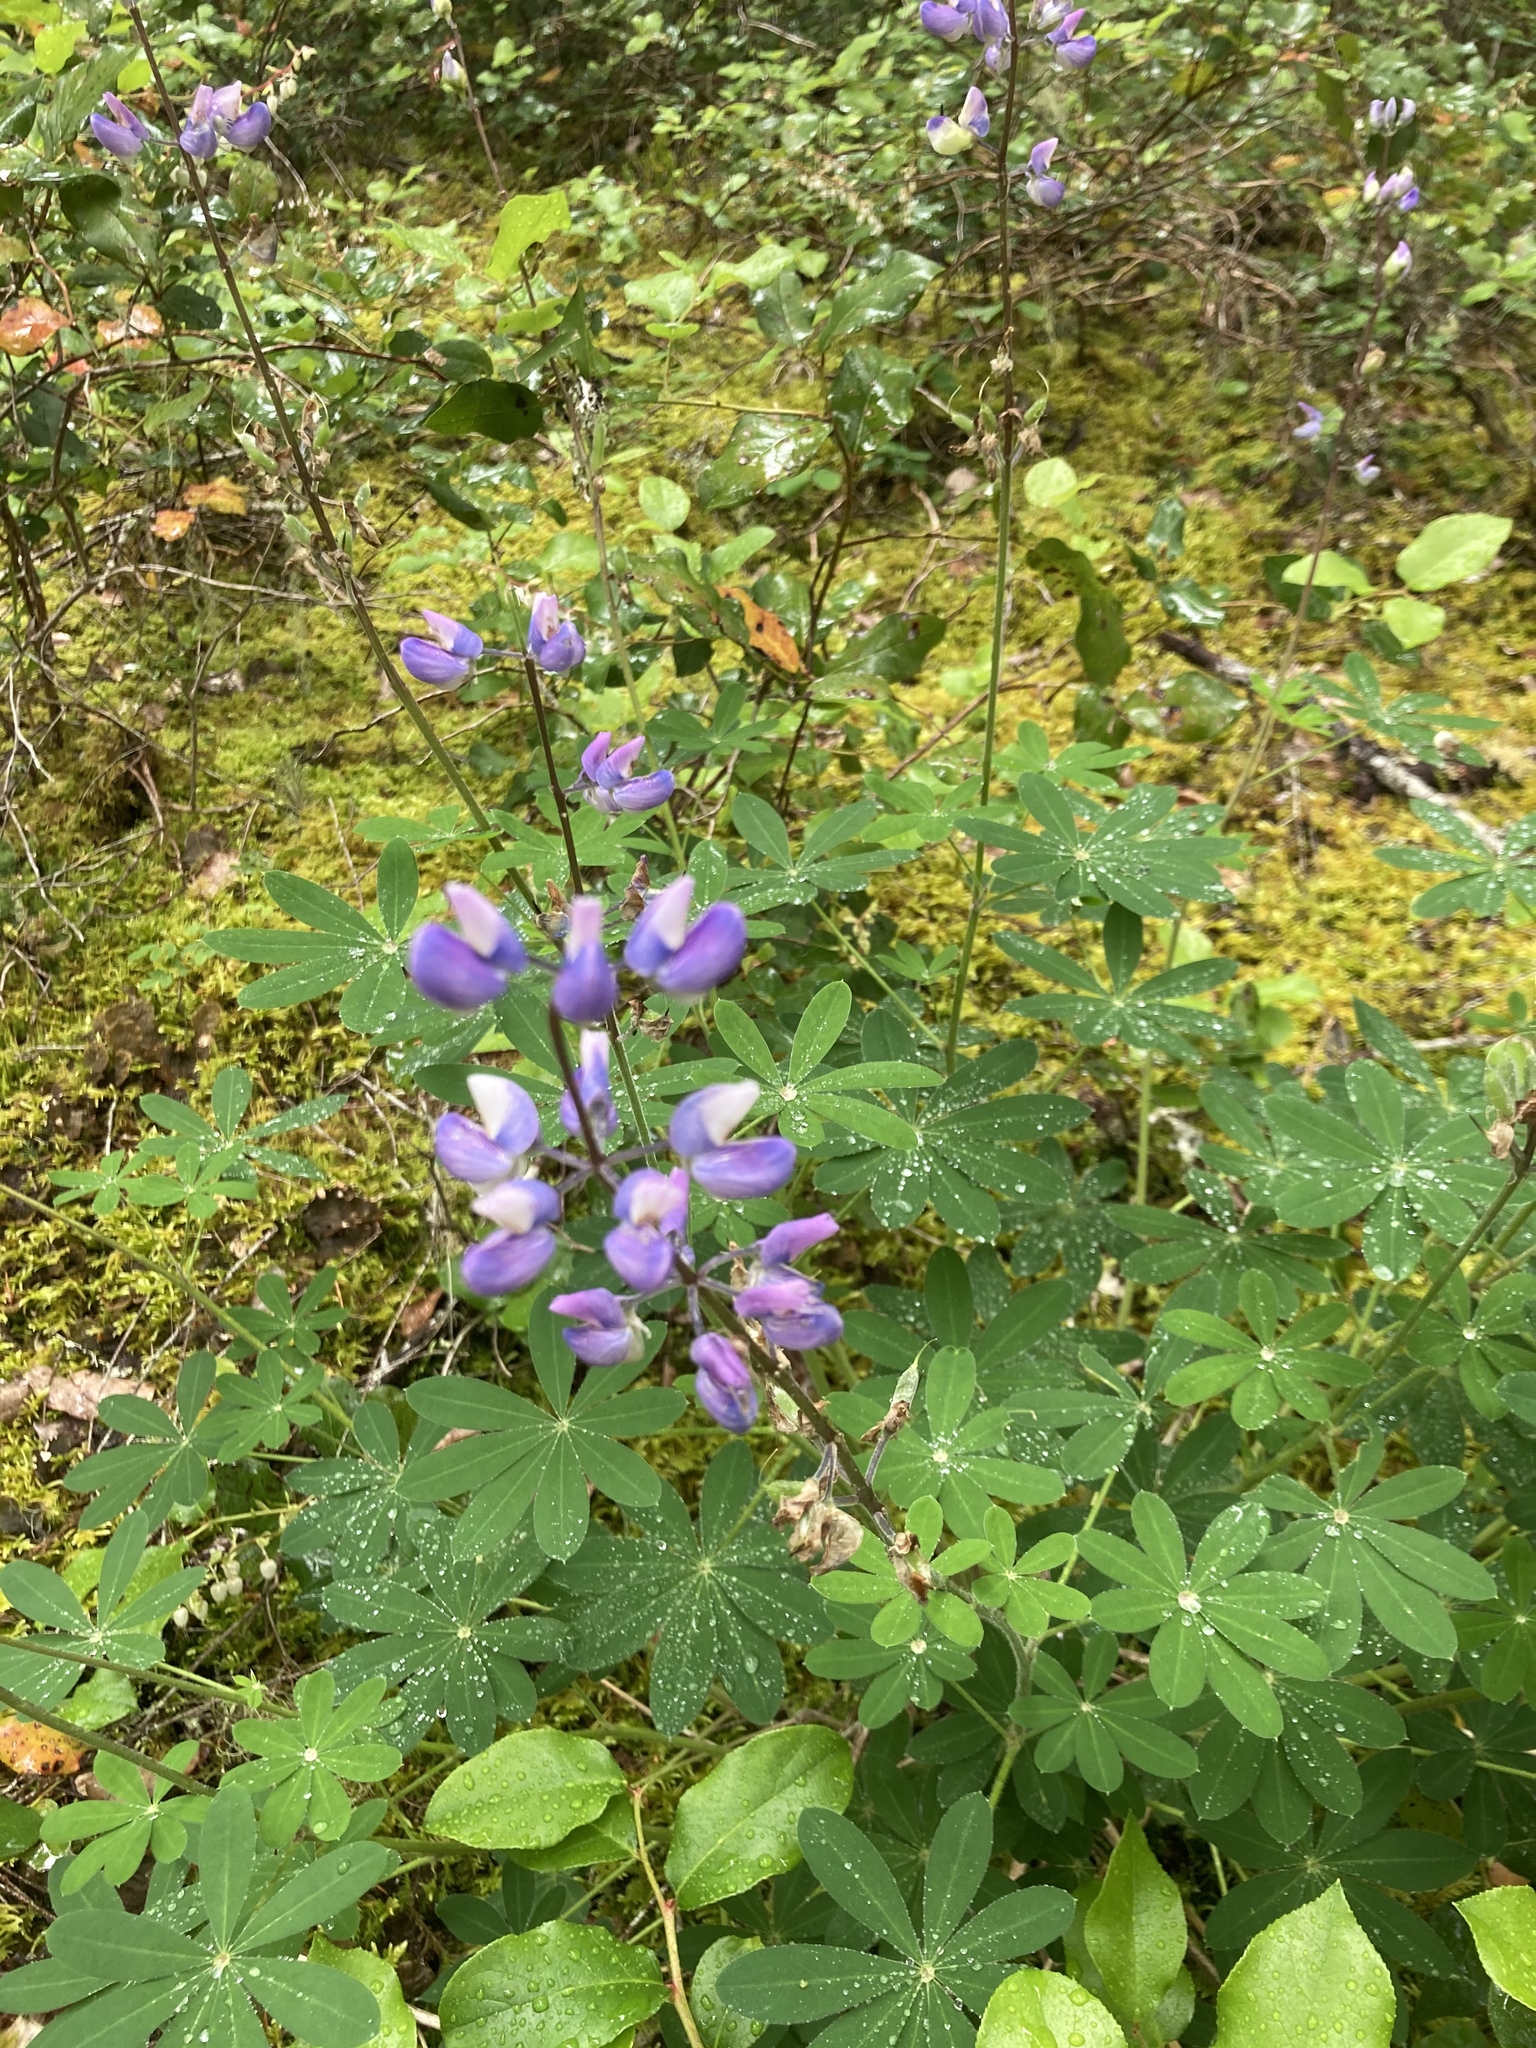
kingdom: Plantae
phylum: Tracheophyta
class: Magnoliopsida
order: Fabales
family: Fabaceae
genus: Lupinus
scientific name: Lupinus latifolius
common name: Broad-leaved lupine
